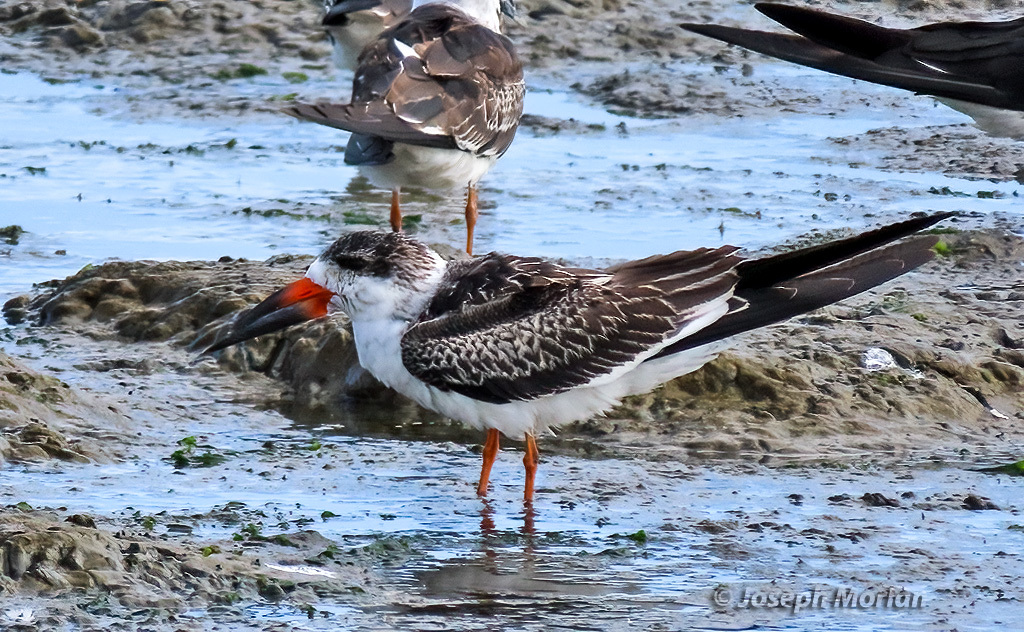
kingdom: Animalia
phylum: Chordata
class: Aves
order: Charadriiformes
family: Laridae
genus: Rynchops
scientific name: Rynchops niger
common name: Black skimmer
